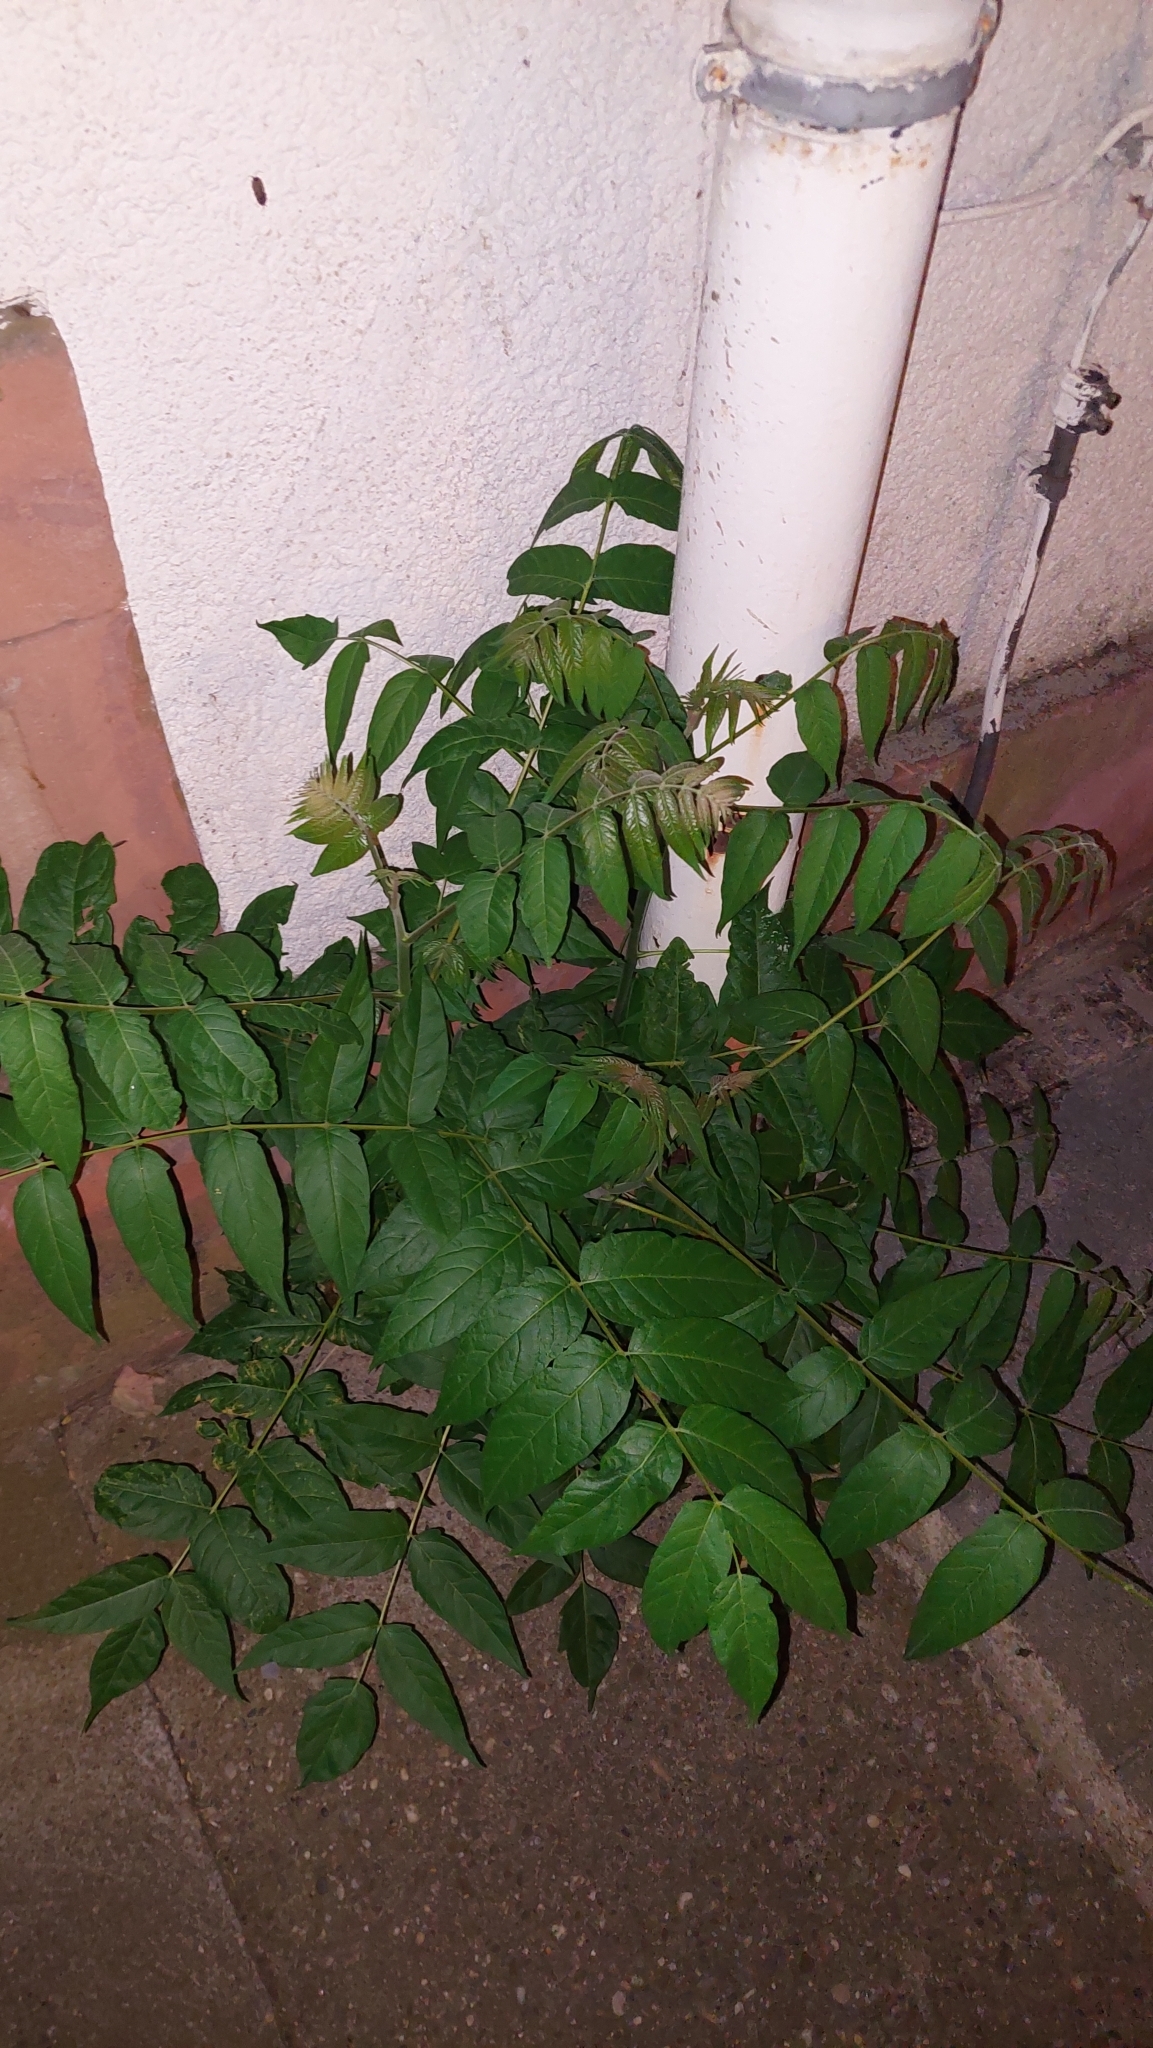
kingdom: Plantae
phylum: Tracheophyta
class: Magnoliopsida
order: Sapindales
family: Simaroubaceae
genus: Ailanthus
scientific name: Ailanthus altissima
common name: Tree-of-heaven
